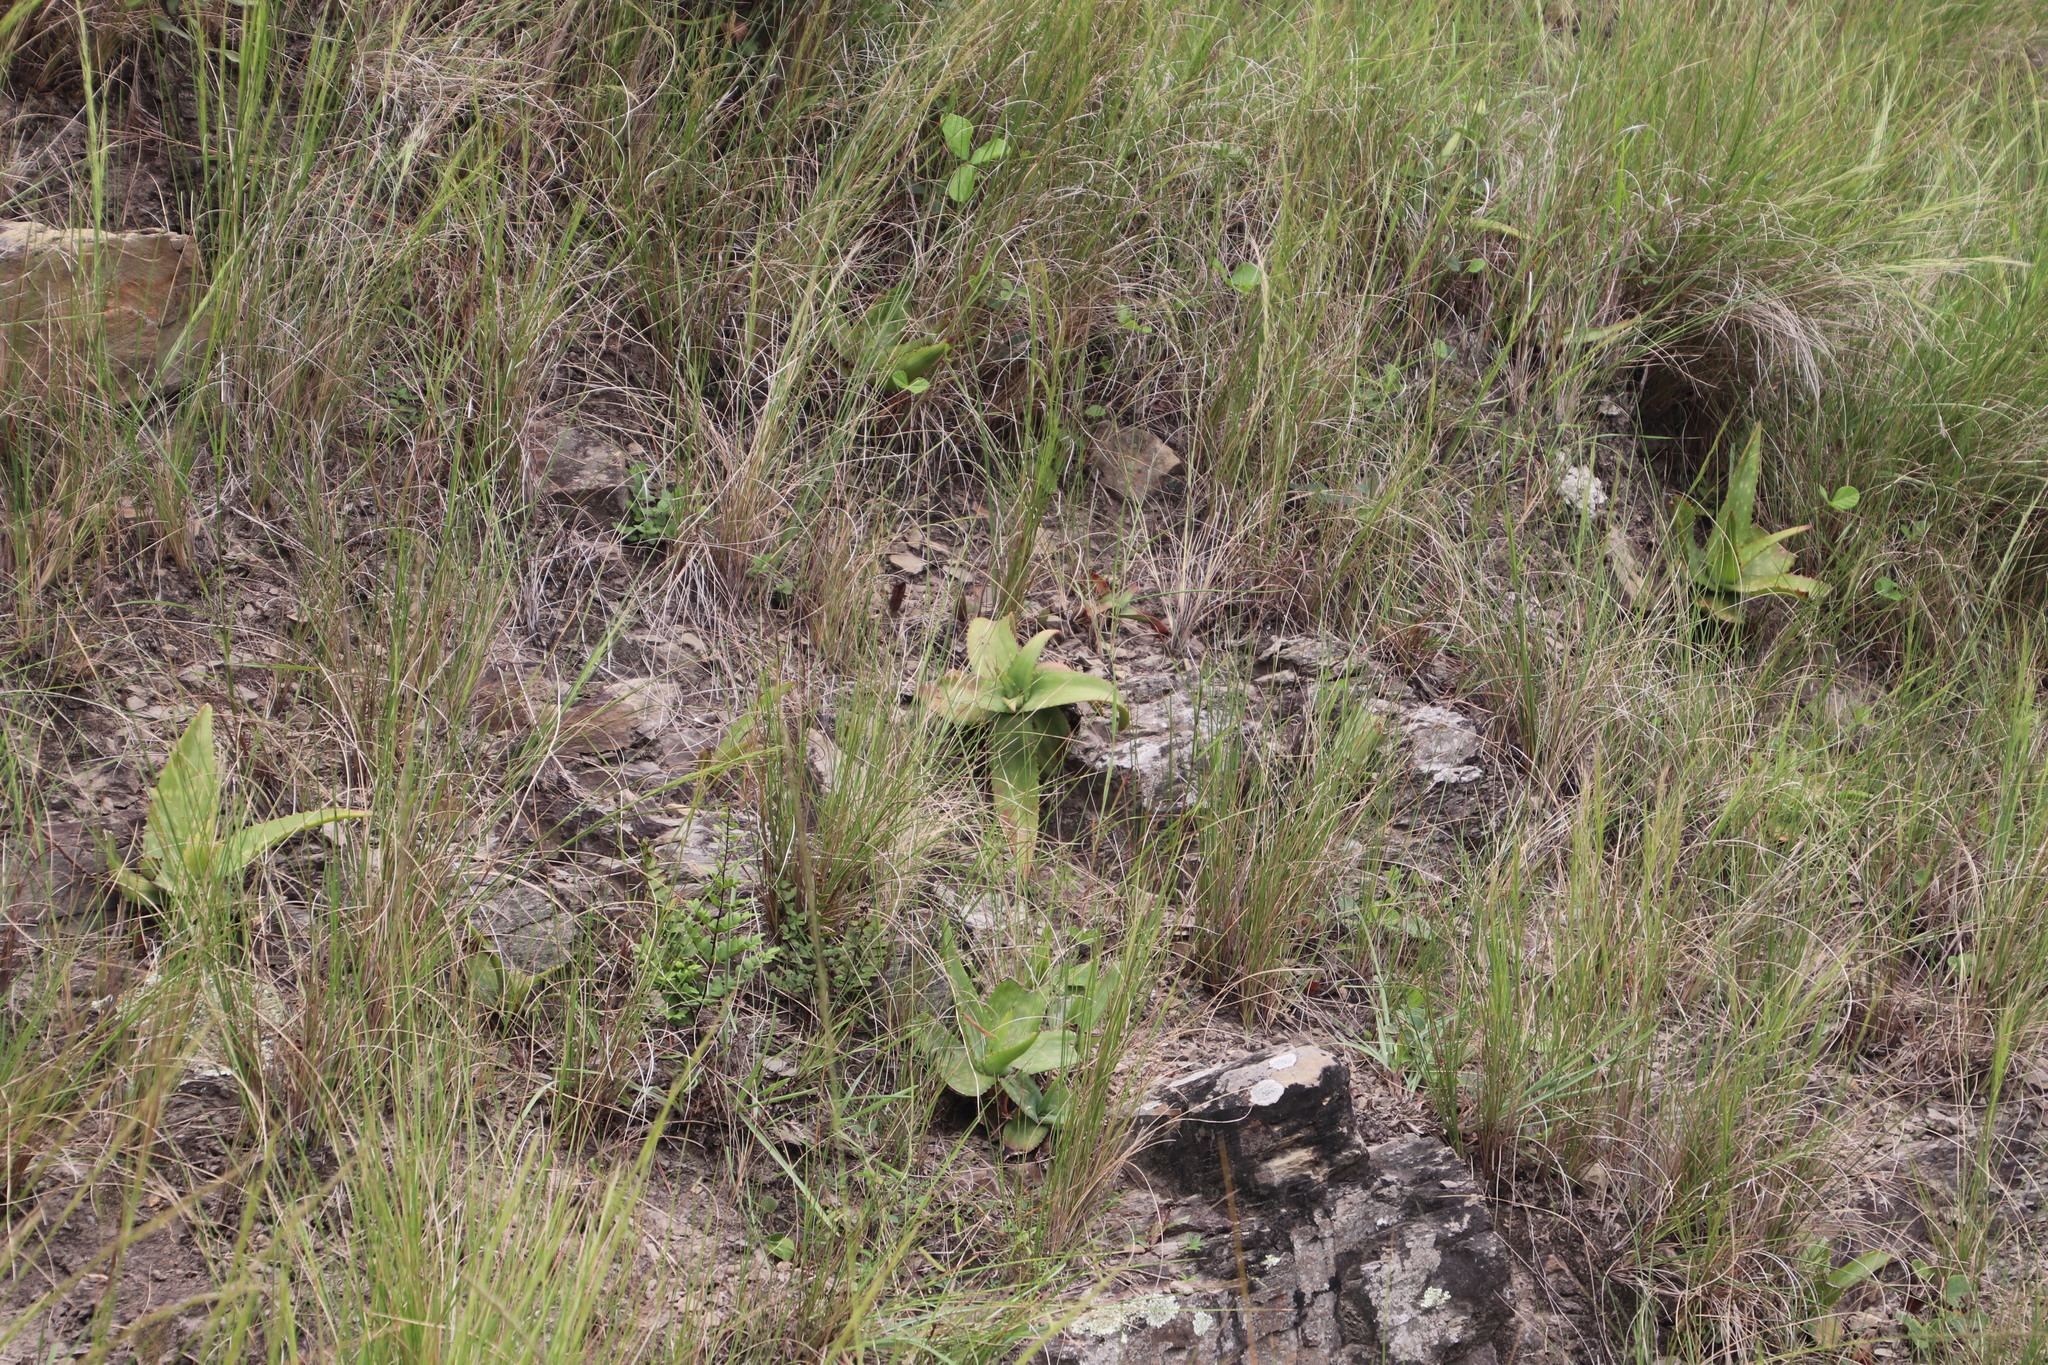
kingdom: Plantae
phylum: Tracheophyta
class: Liliopsida
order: Asparagales
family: Asphodelaceae
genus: Aloe
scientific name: Aloe maculata
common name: Broadleaf aloe
